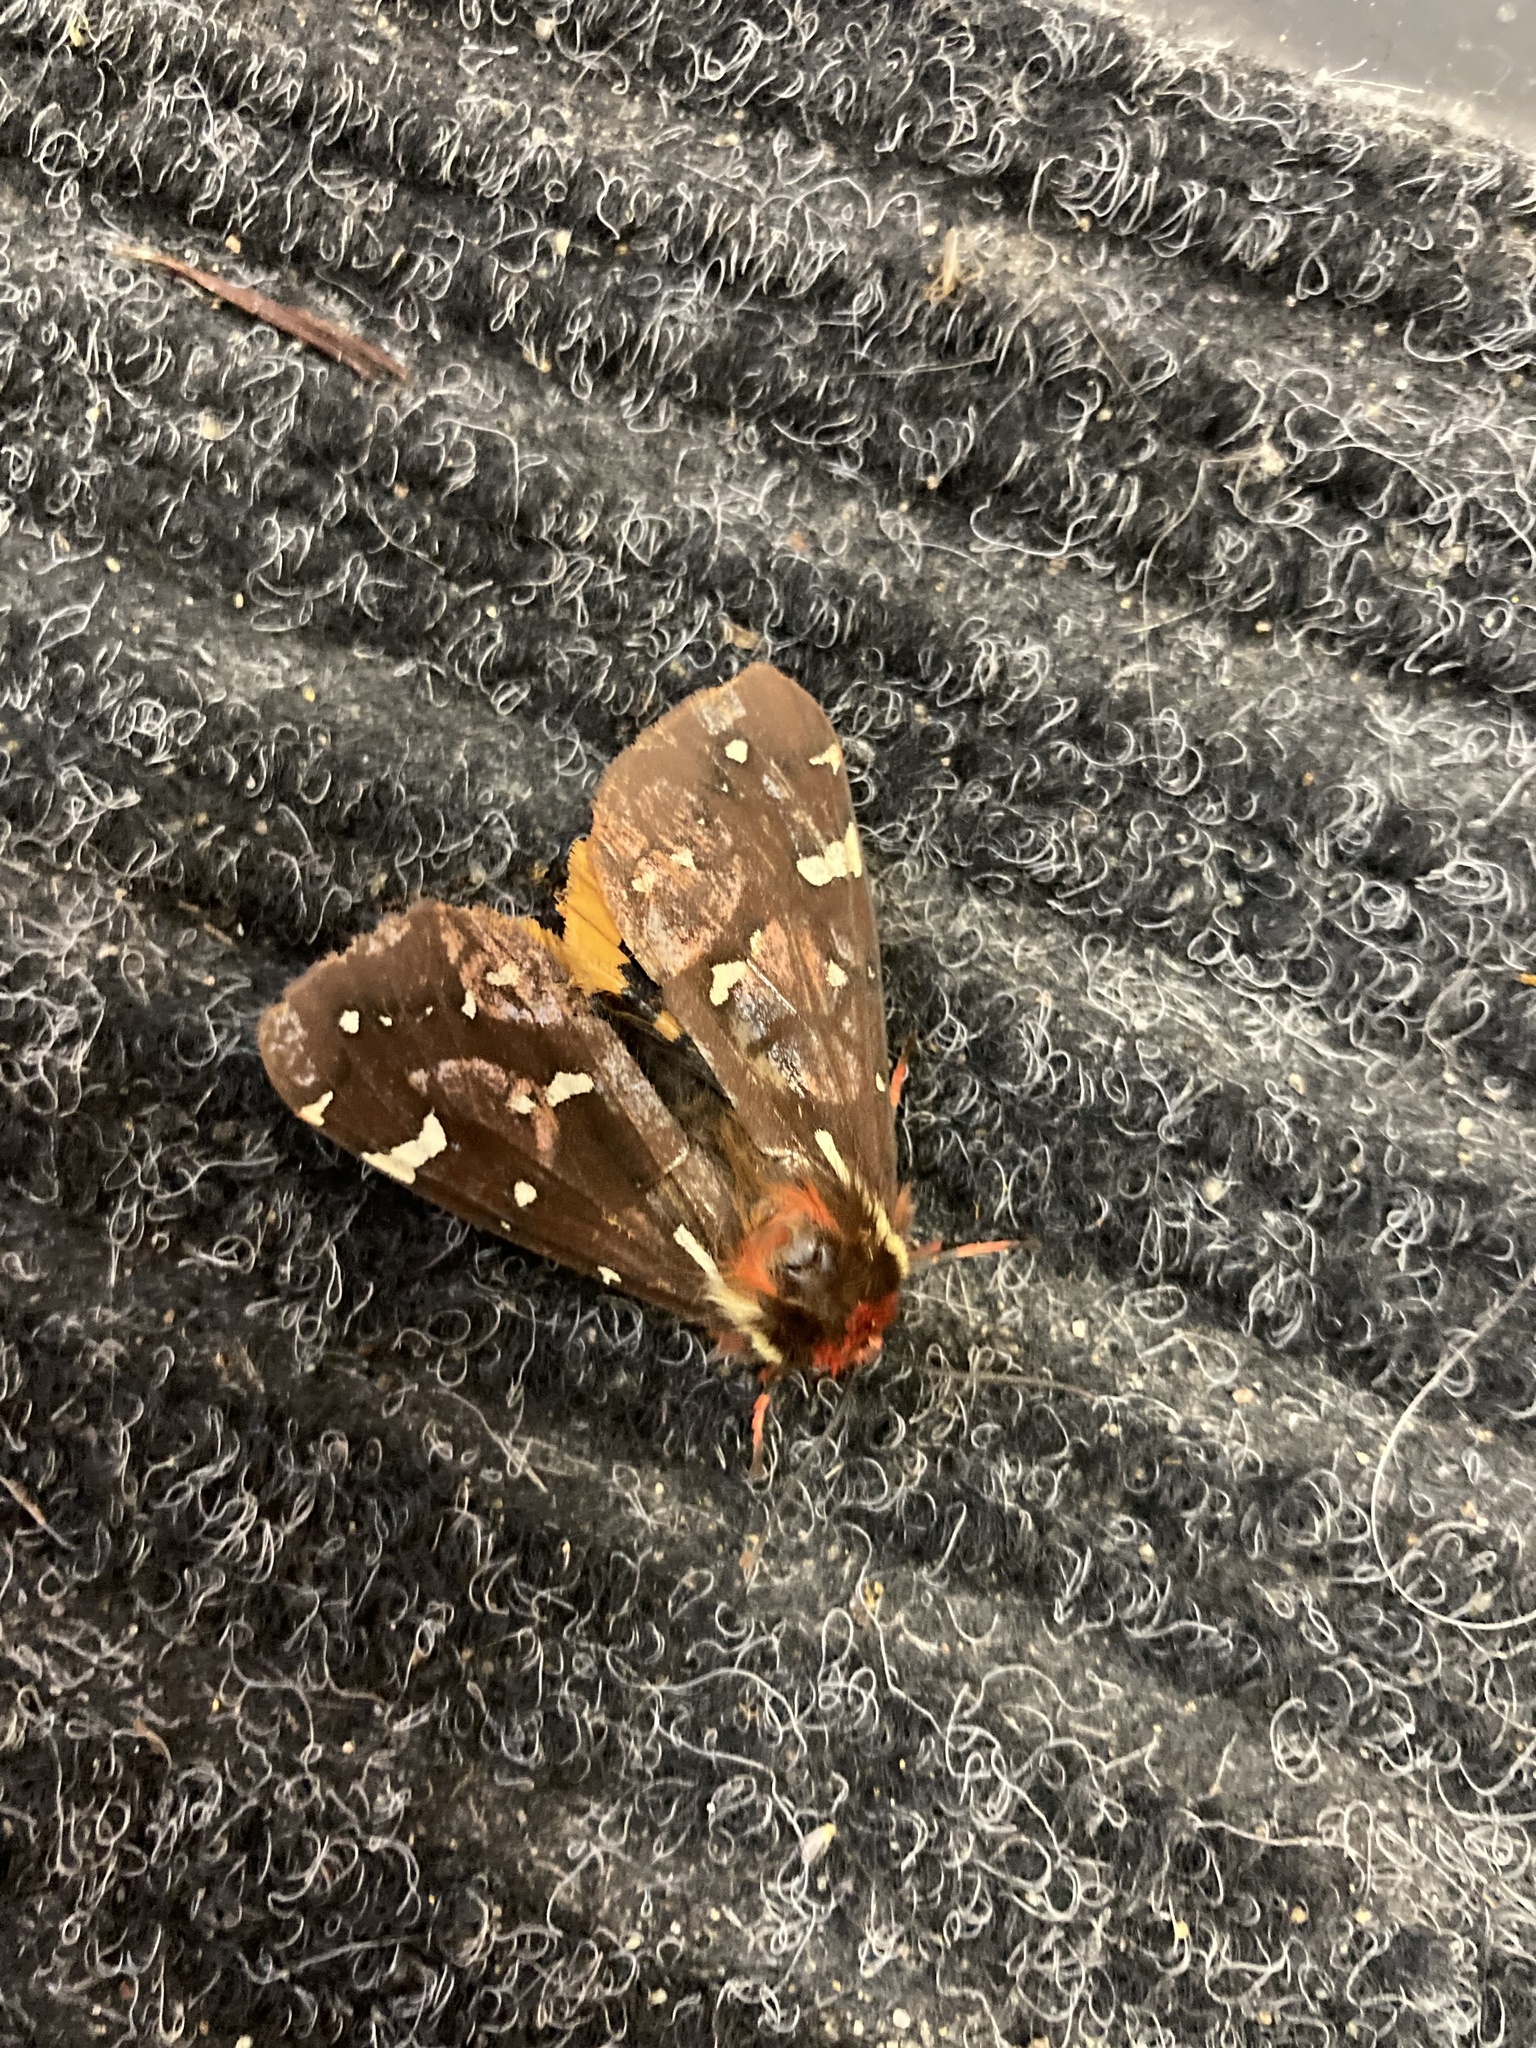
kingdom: Animalia
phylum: Arthropoda
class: Insecta
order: Lepidoptera
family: Erebidae
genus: Arctia
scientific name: Arctia parthenos
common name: St. lawrence tiger moth
